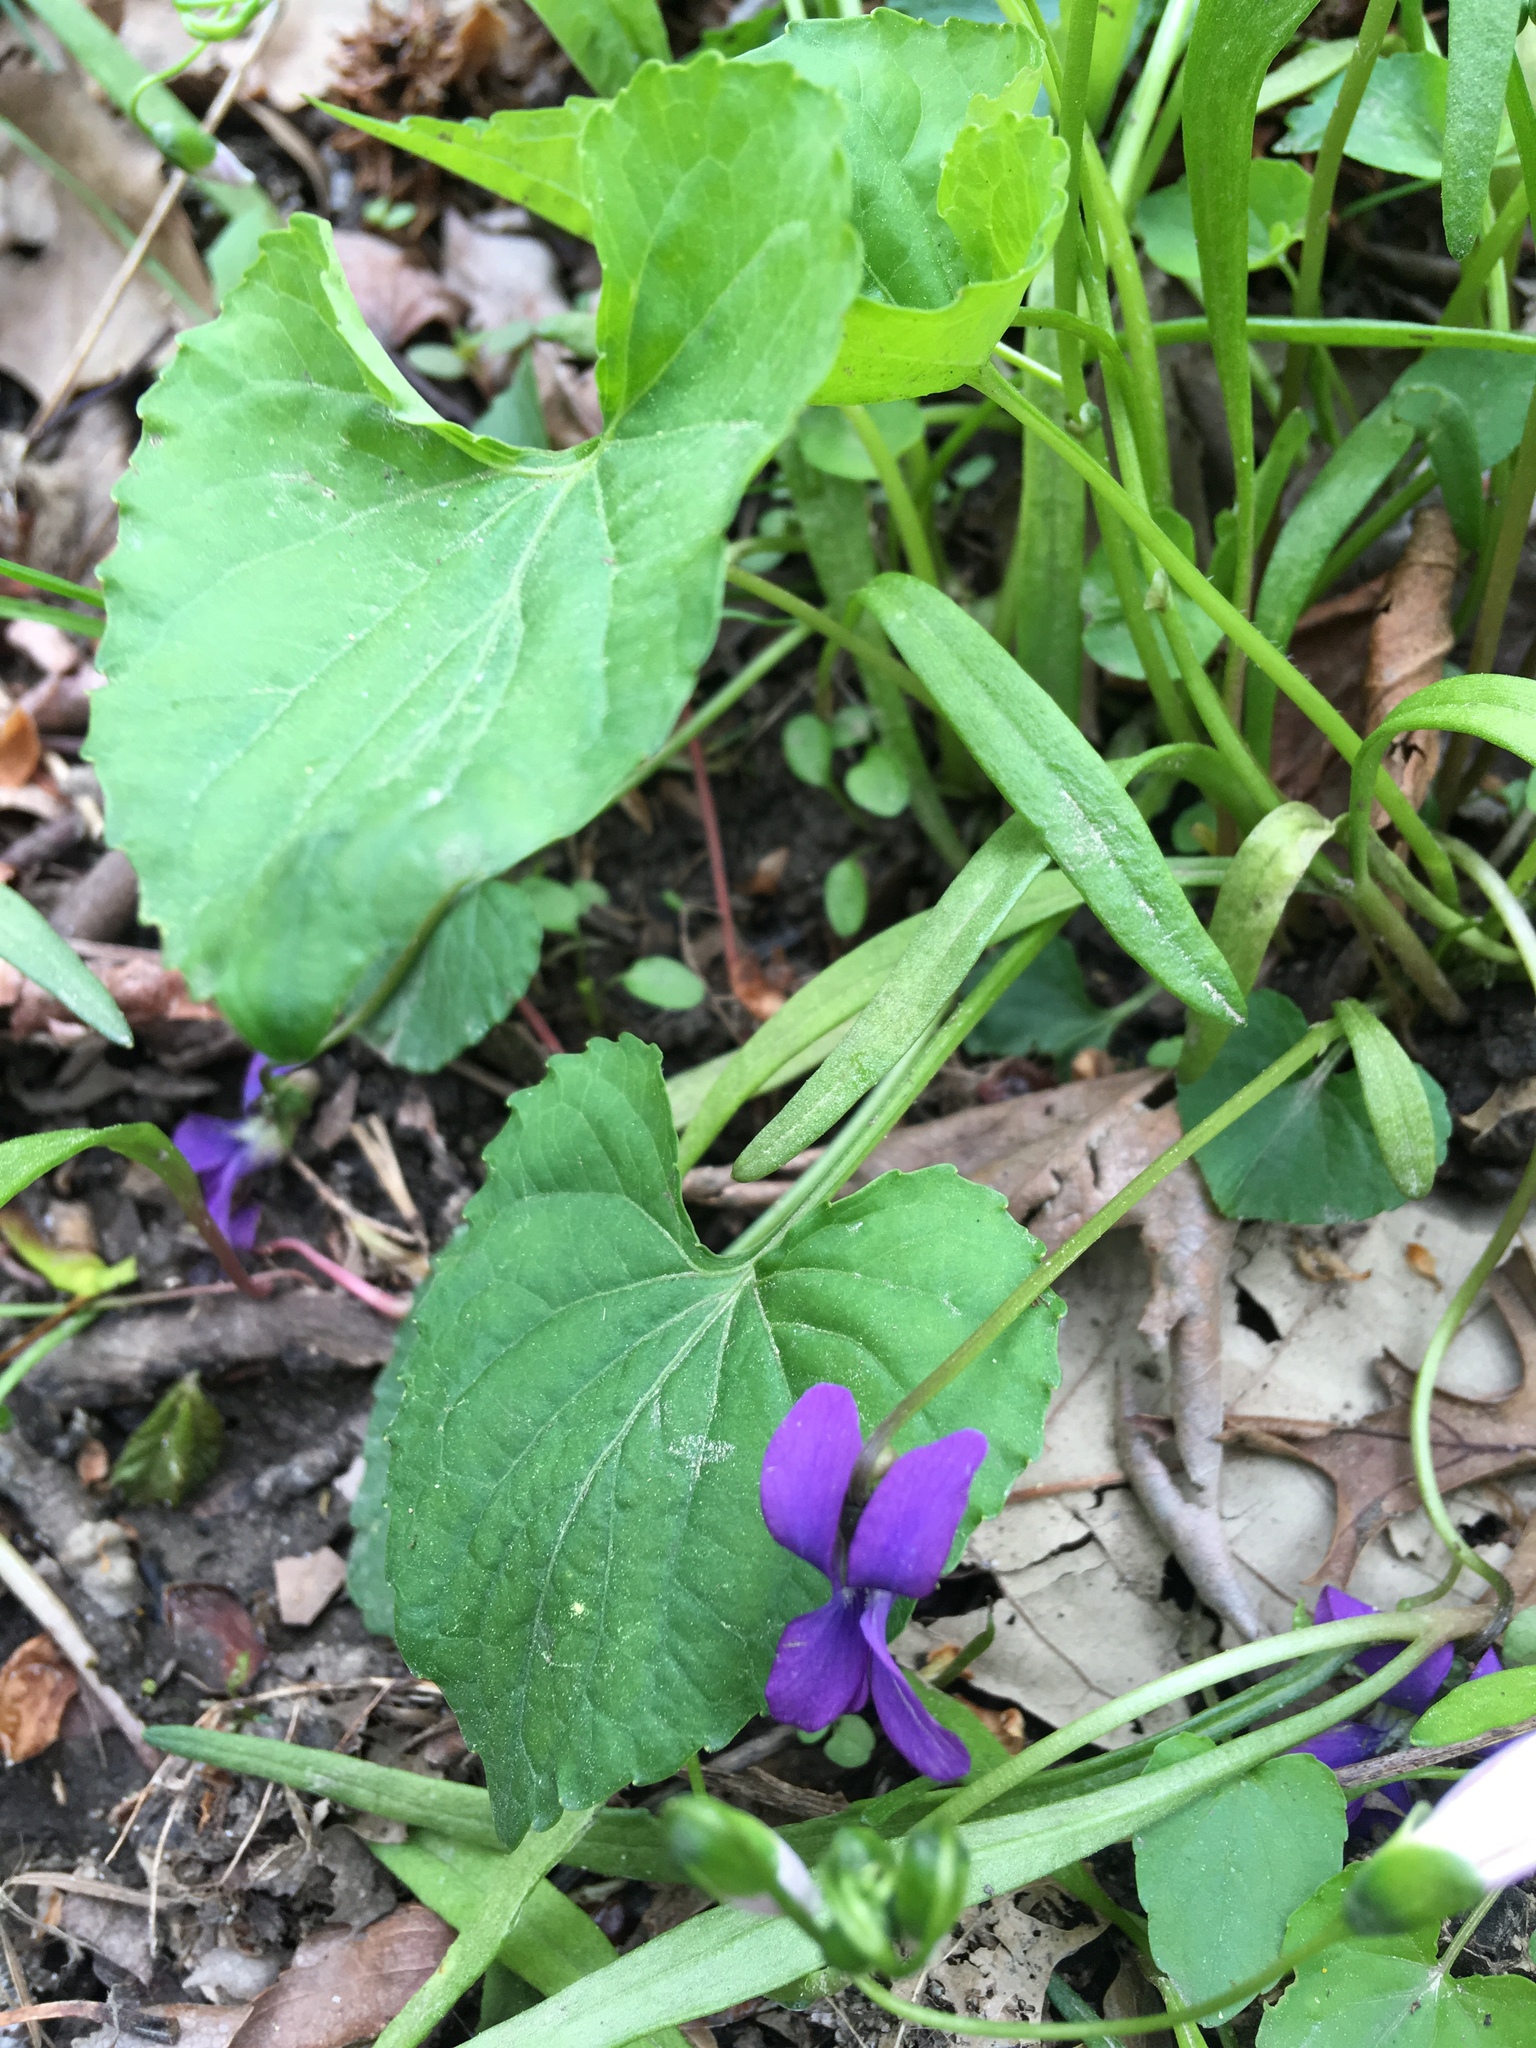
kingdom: Plantae
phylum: Tracheophyta
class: Magnoliopsida
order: Malpighiales
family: Violaceae
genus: Viola
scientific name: Viola sororia
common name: Dooryard violet
